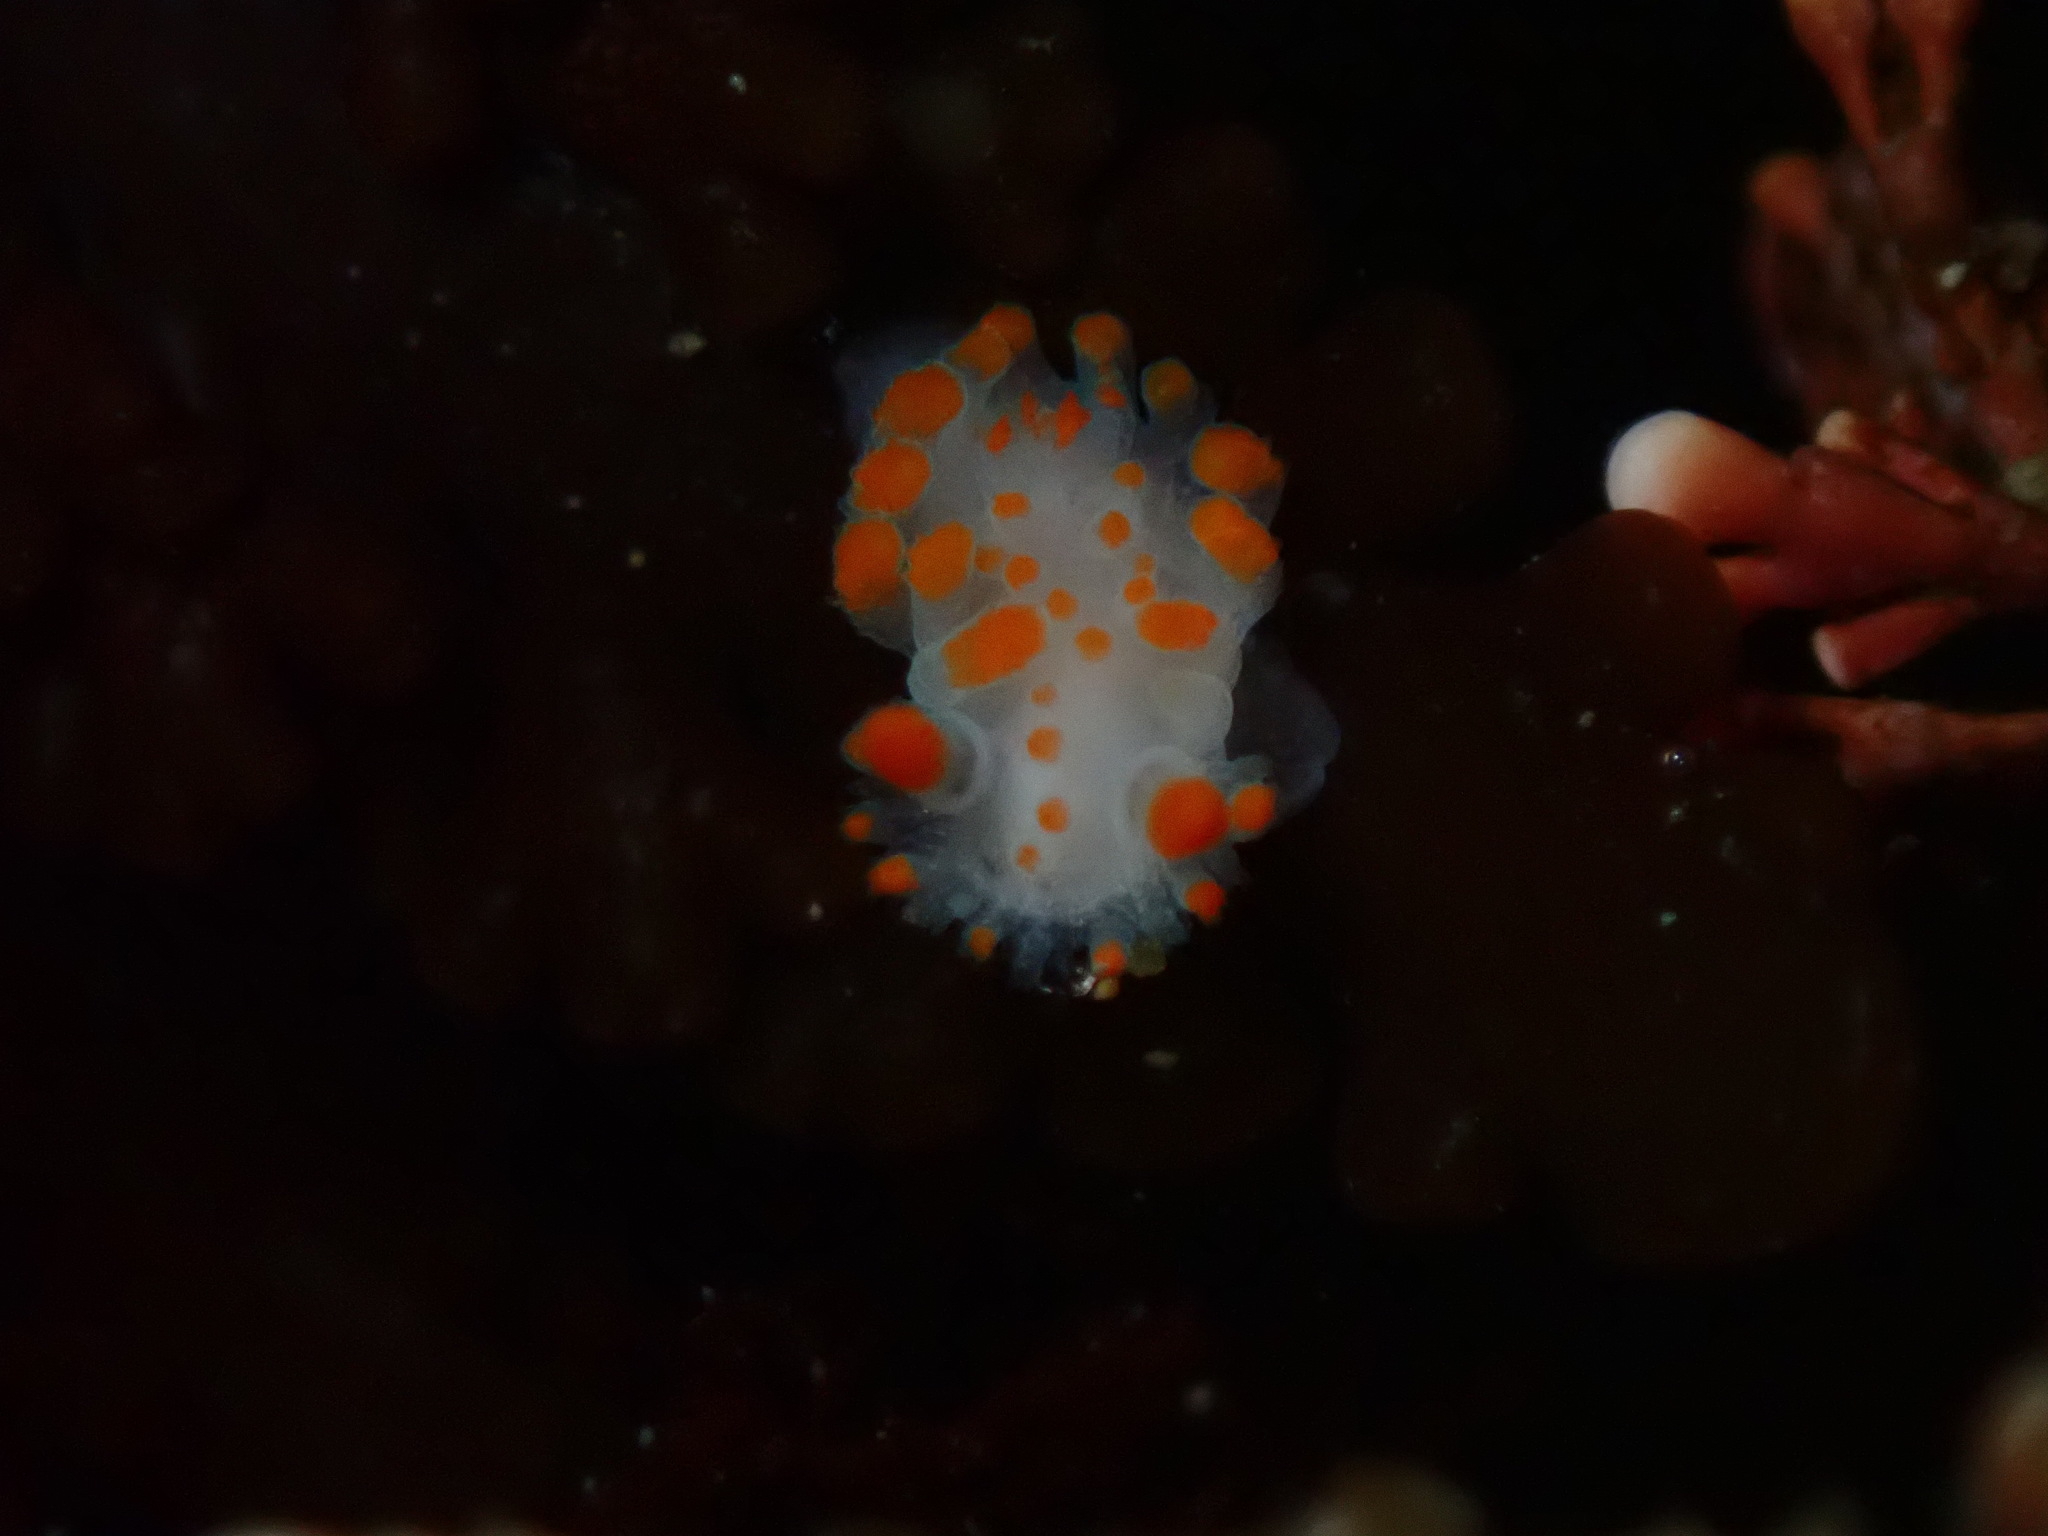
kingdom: Animalia
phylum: Mollusca
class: Gastropoda
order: Nudibranchia
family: Polyceridae
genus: Triopha
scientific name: Triopha catalinae
